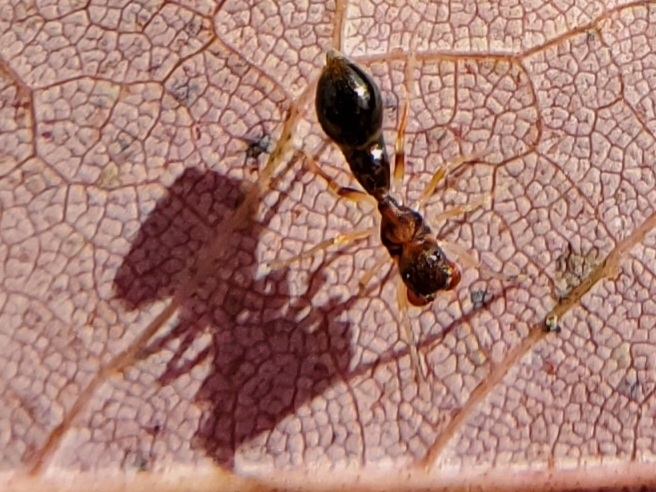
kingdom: Animalia
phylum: Arthropoda
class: Arachnida
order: Araneae
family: Salticidae
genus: Synemosyna
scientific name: Synemosyna formica
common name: Slender ant-mimic jumping spider
